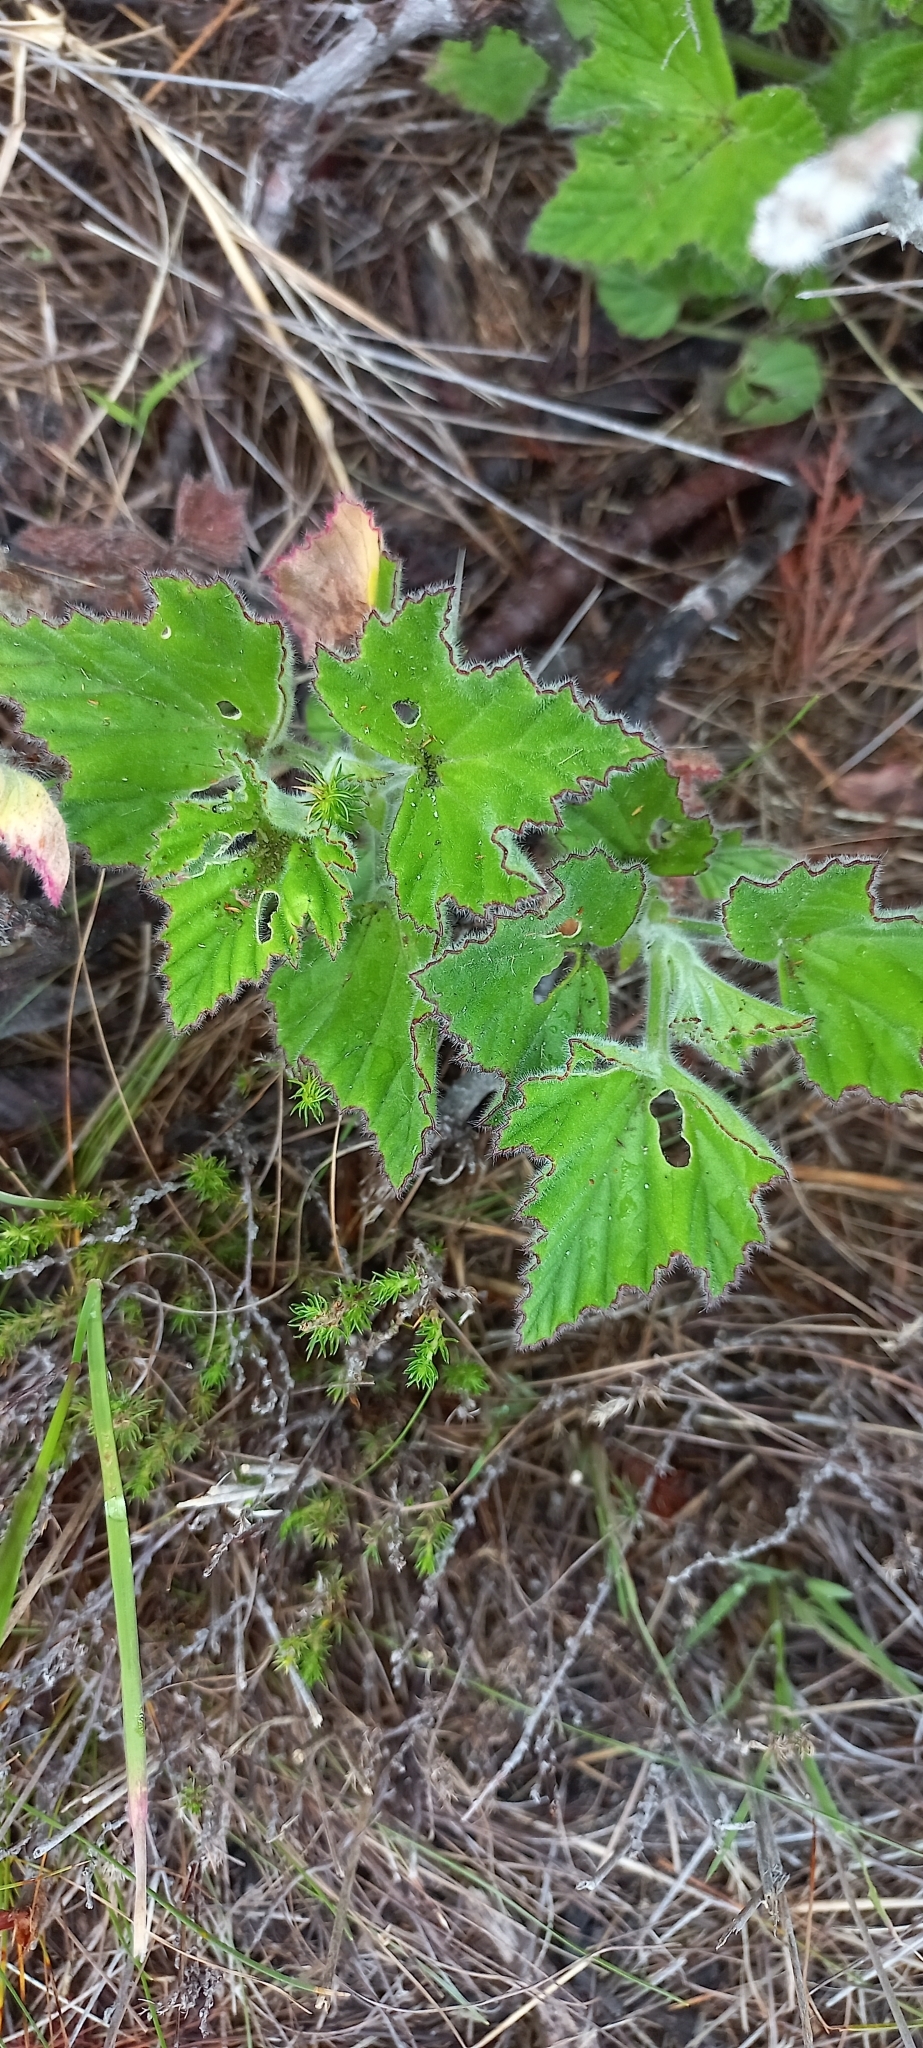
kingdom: Plantae
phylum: Tracheophyta
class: Magnoliopsida
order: Geraniales
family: Geraniaceae
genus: Pelargonium
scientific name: Pelargonium cucullatum
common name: Tree pelargonium
